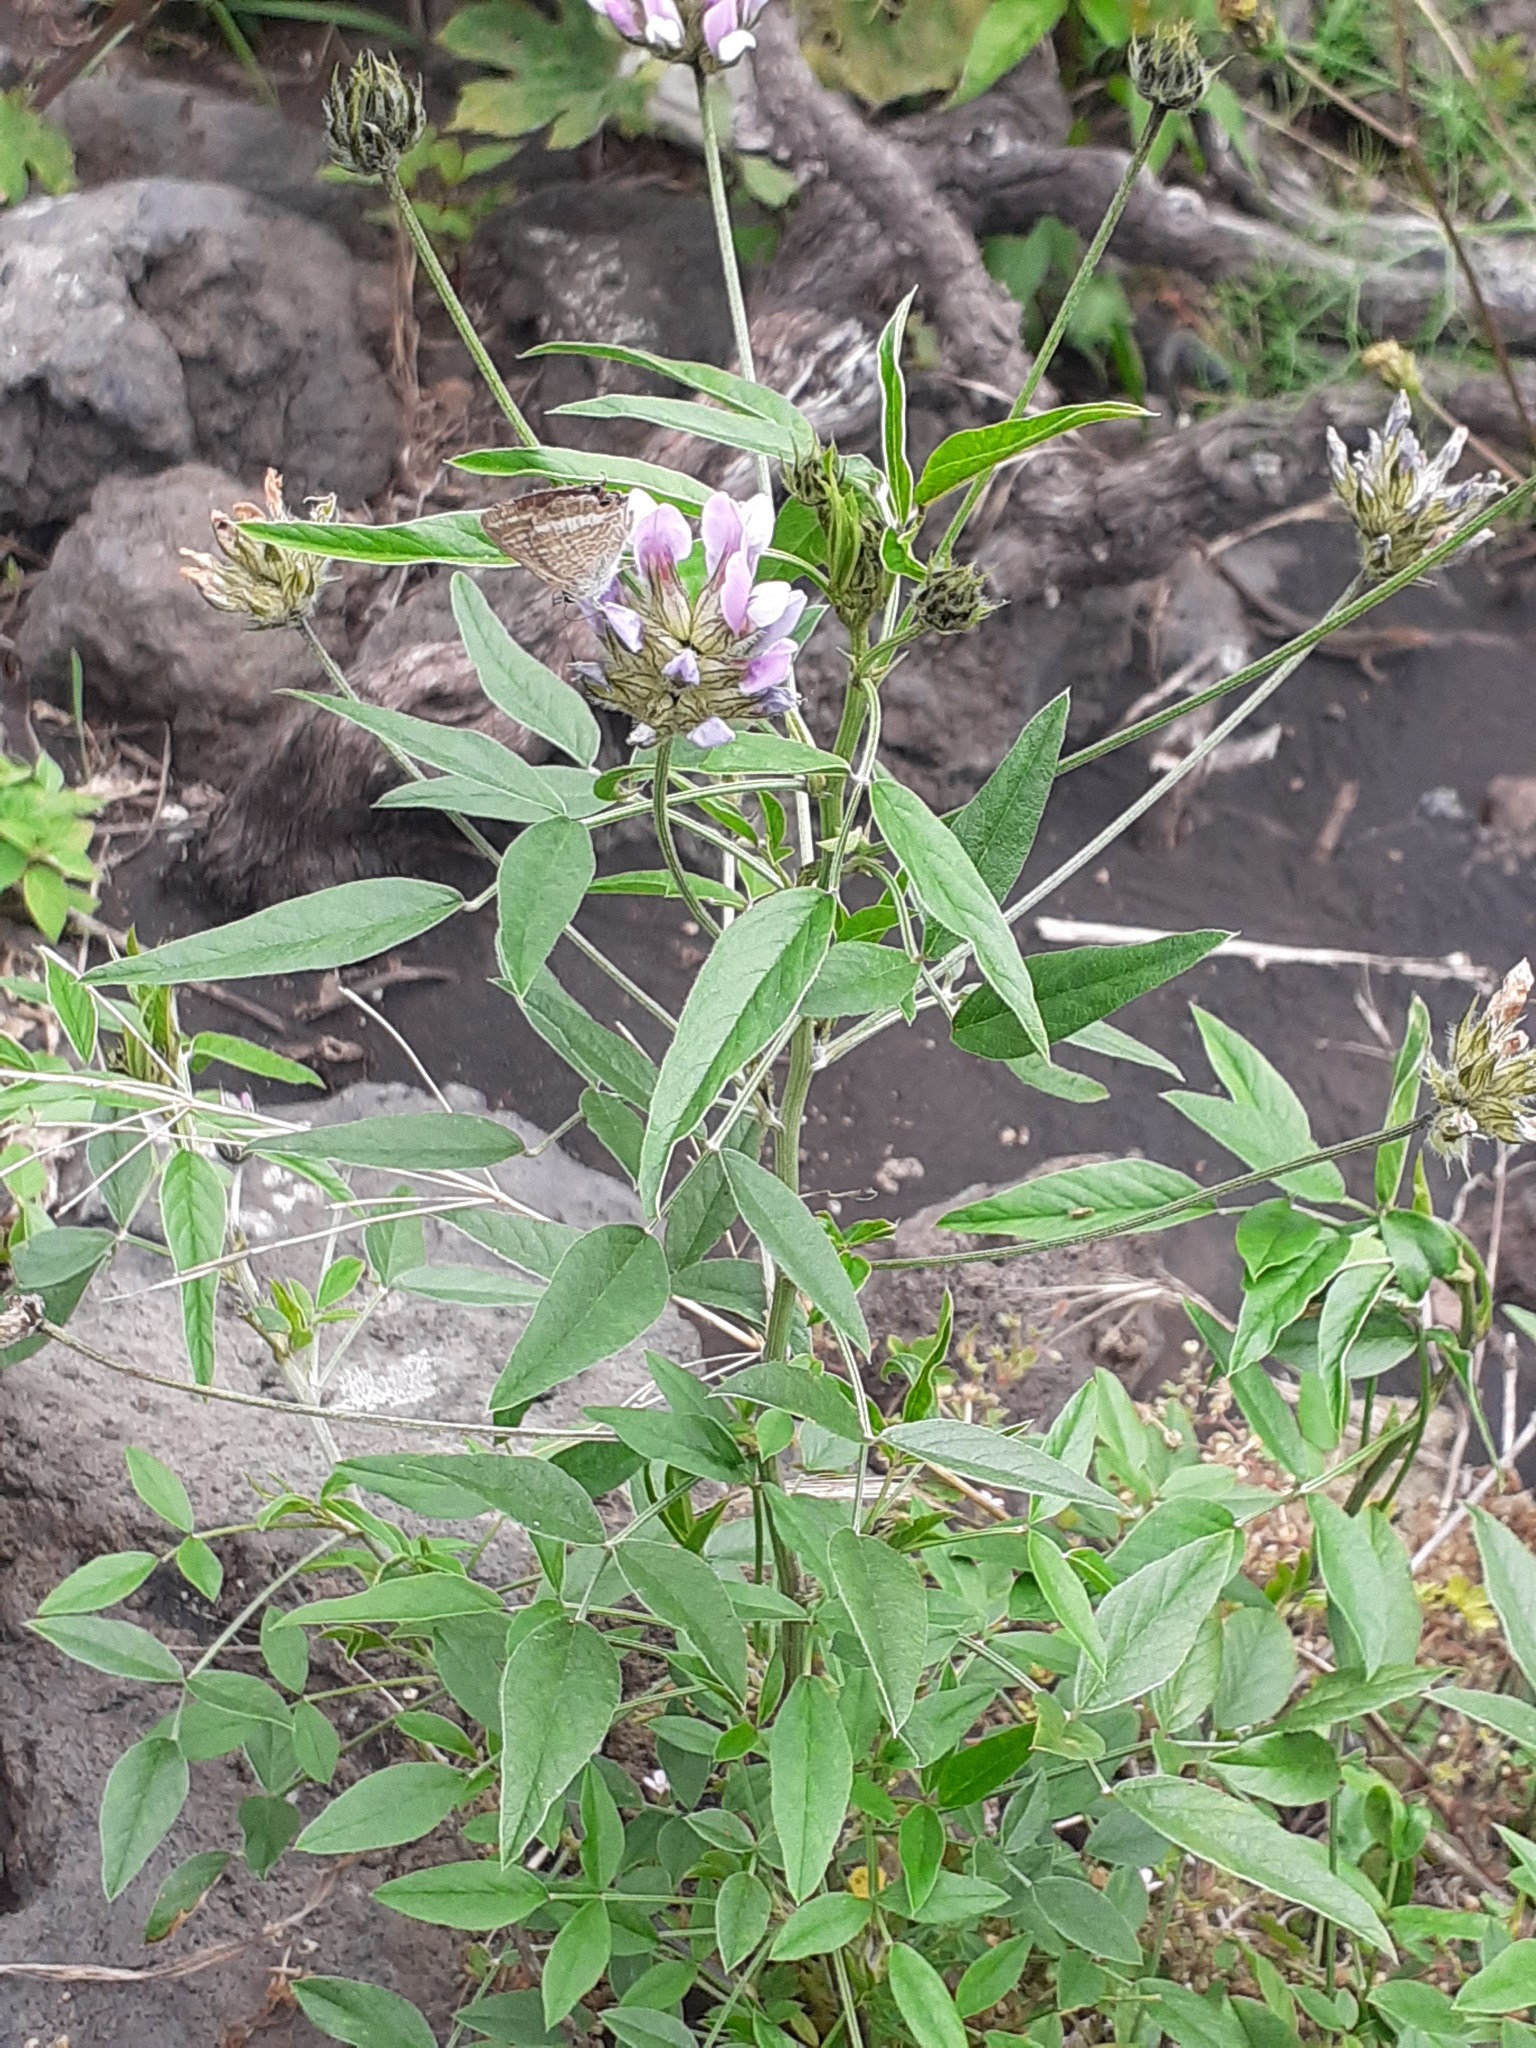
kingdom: Animalia
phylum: Arthropoda
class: Insecta
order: Lepidoptera
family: Lycaenidae
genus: Lampides
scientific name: Lampides boeticus
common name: Long-tailed blue
